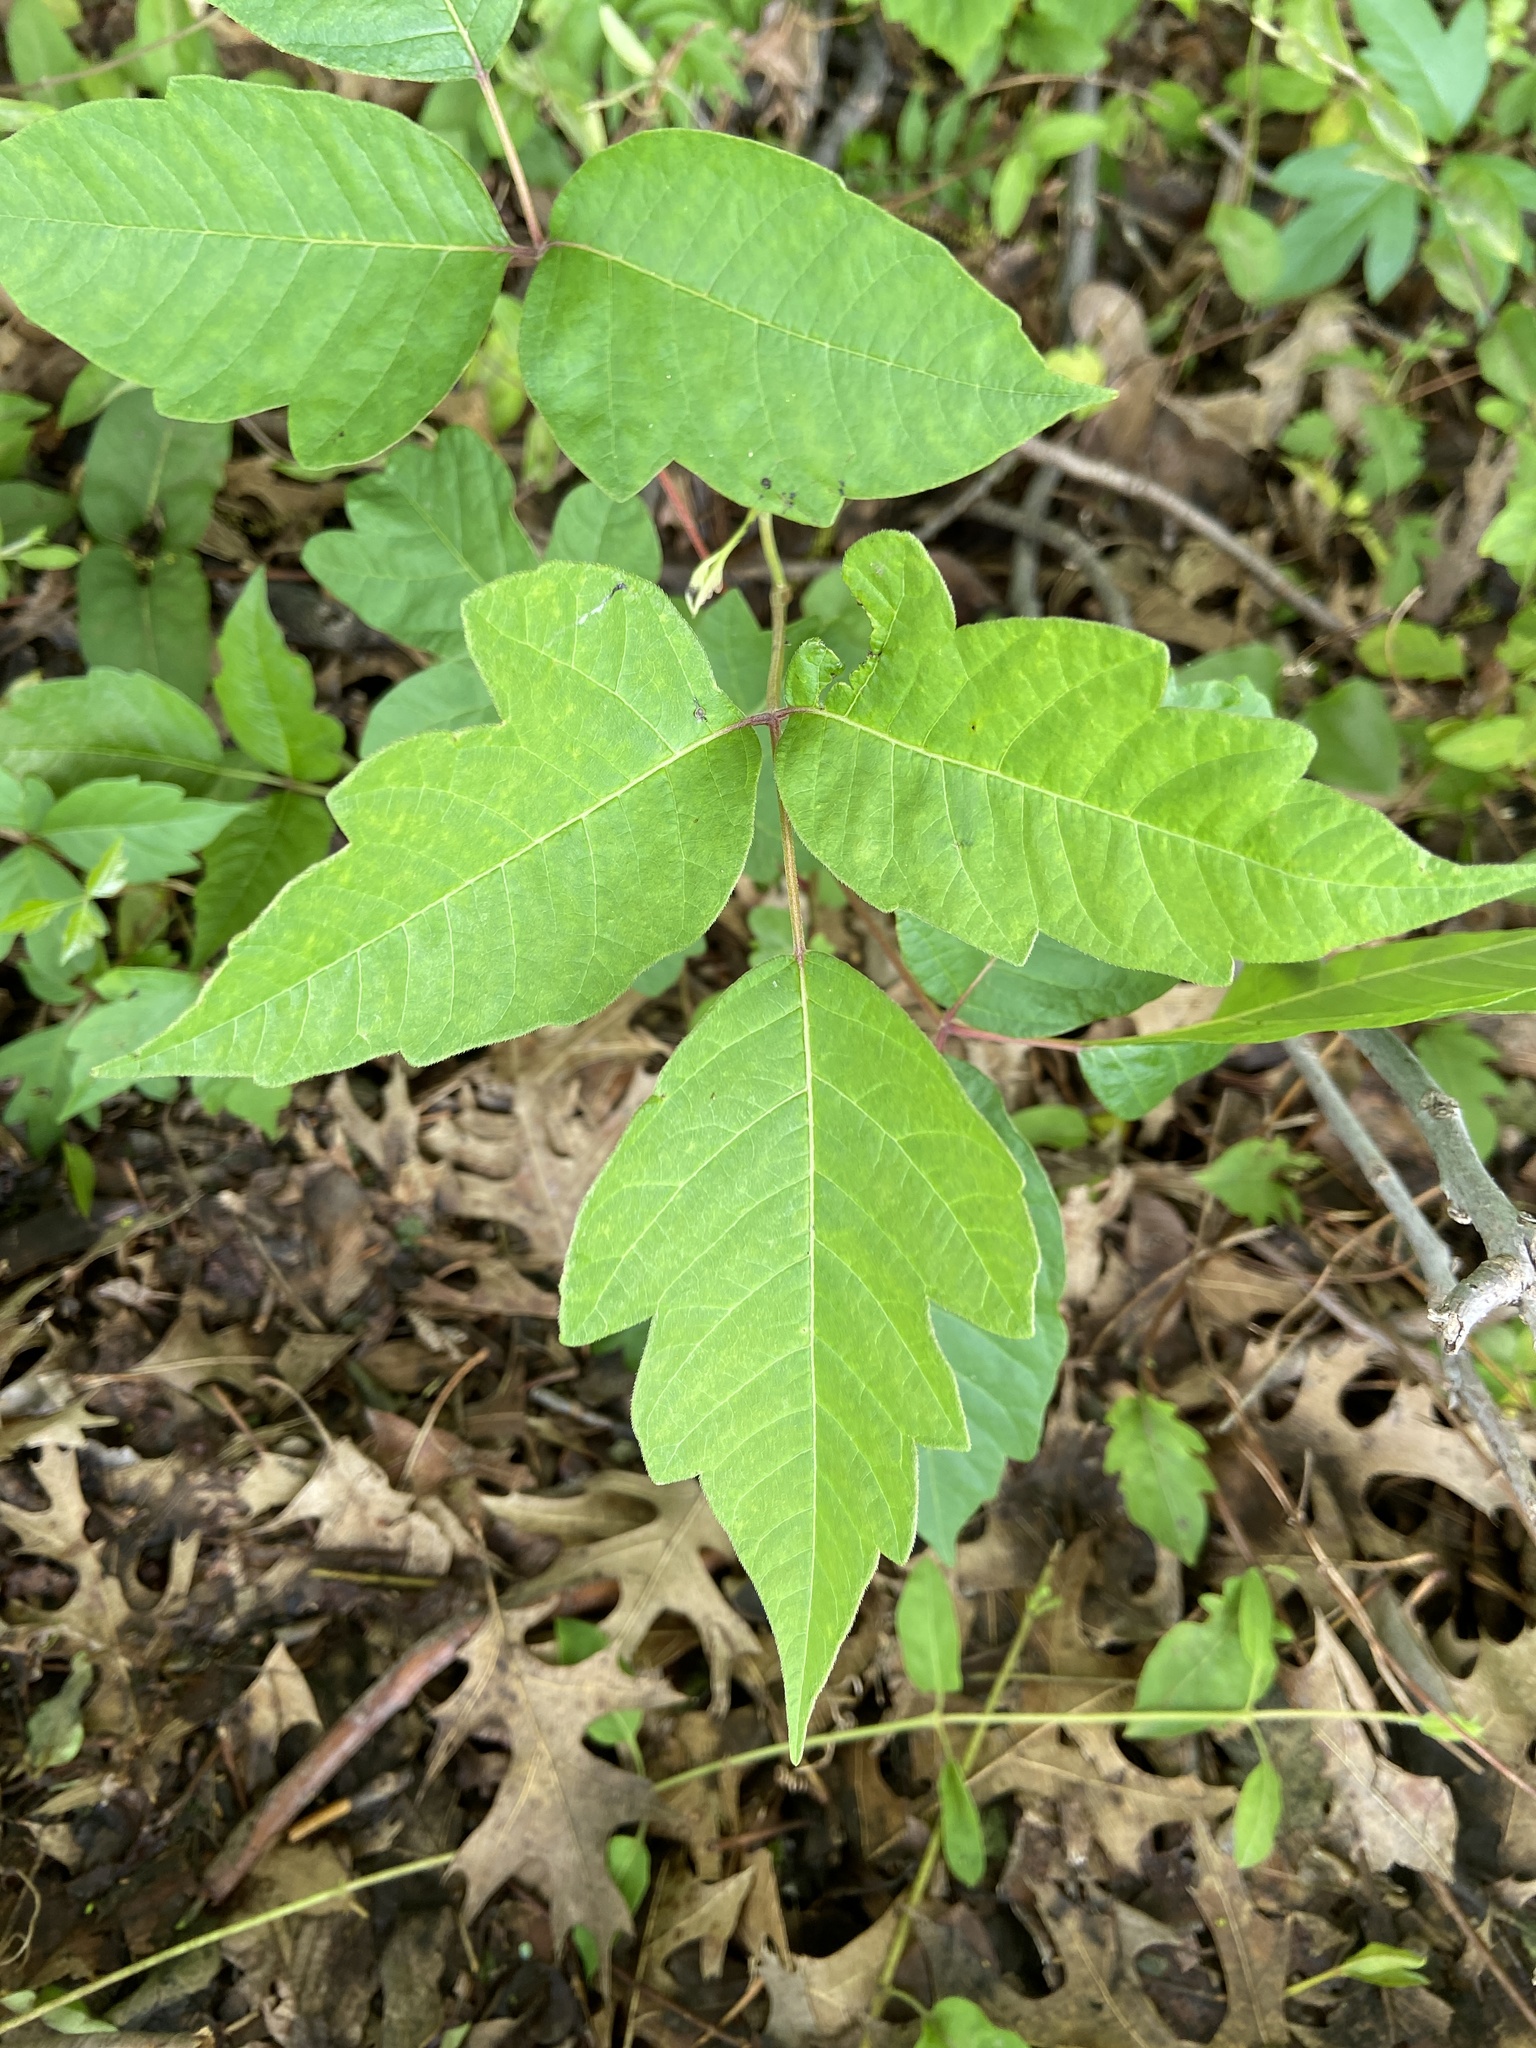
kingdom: Plantae
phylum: Tracheophyta
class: Magnoliopsida
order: Sapindales
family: Anacardiaceae
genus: Toxicodendron
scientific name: Toxicodendron radicans
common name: Poison ivy
